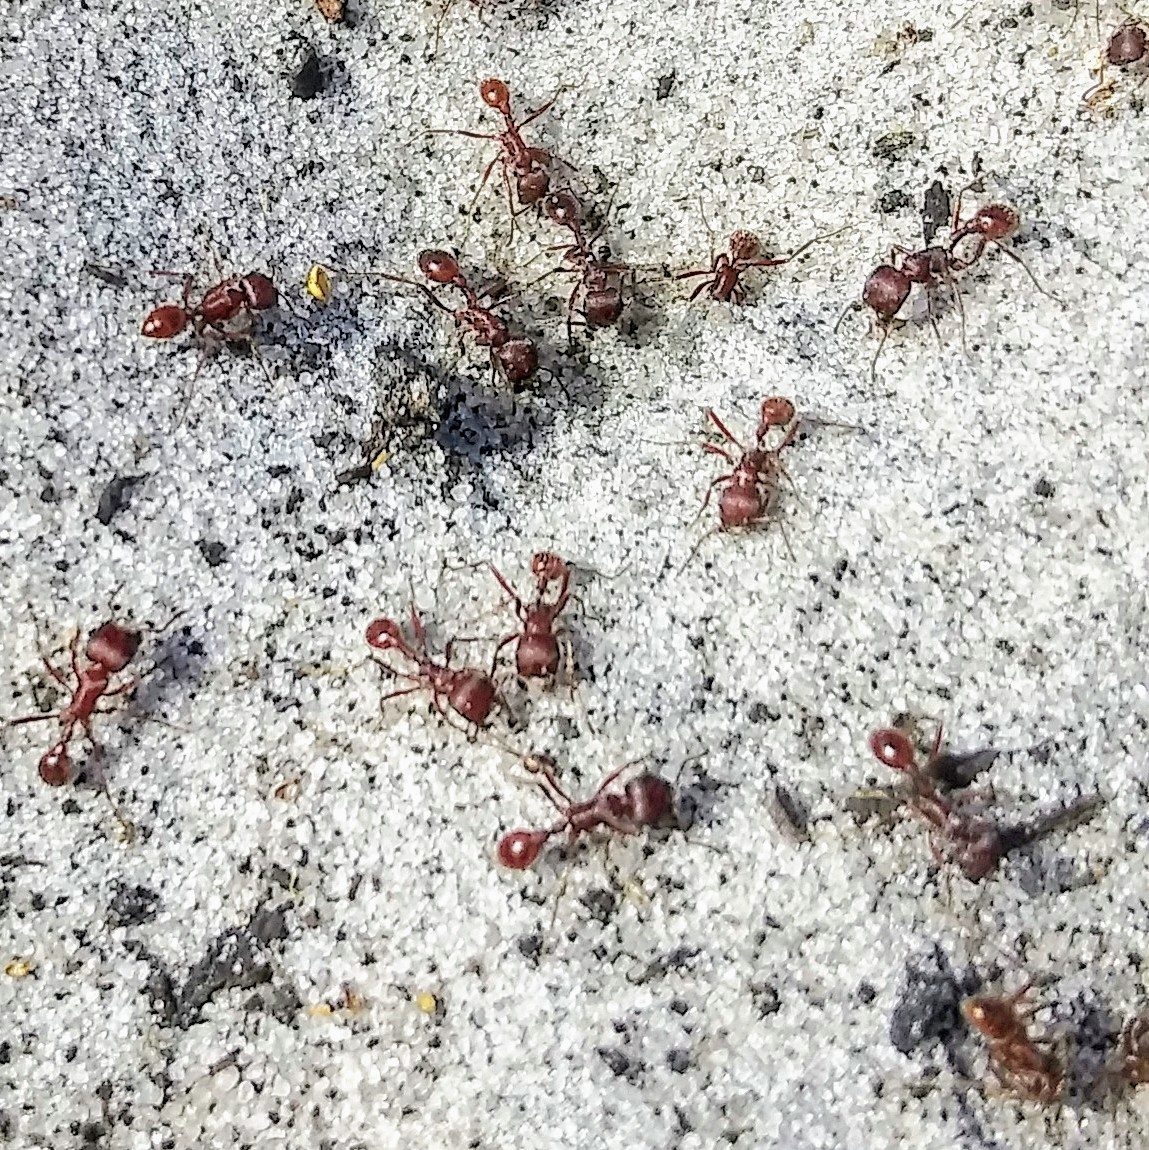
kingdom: Animalia
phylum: Arthropoda
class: Insecta
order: Hymenoptera
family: Formicidae
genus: Pogonomyrmex
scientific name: Pogonomyrmex badius
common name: Florida harvester ant
